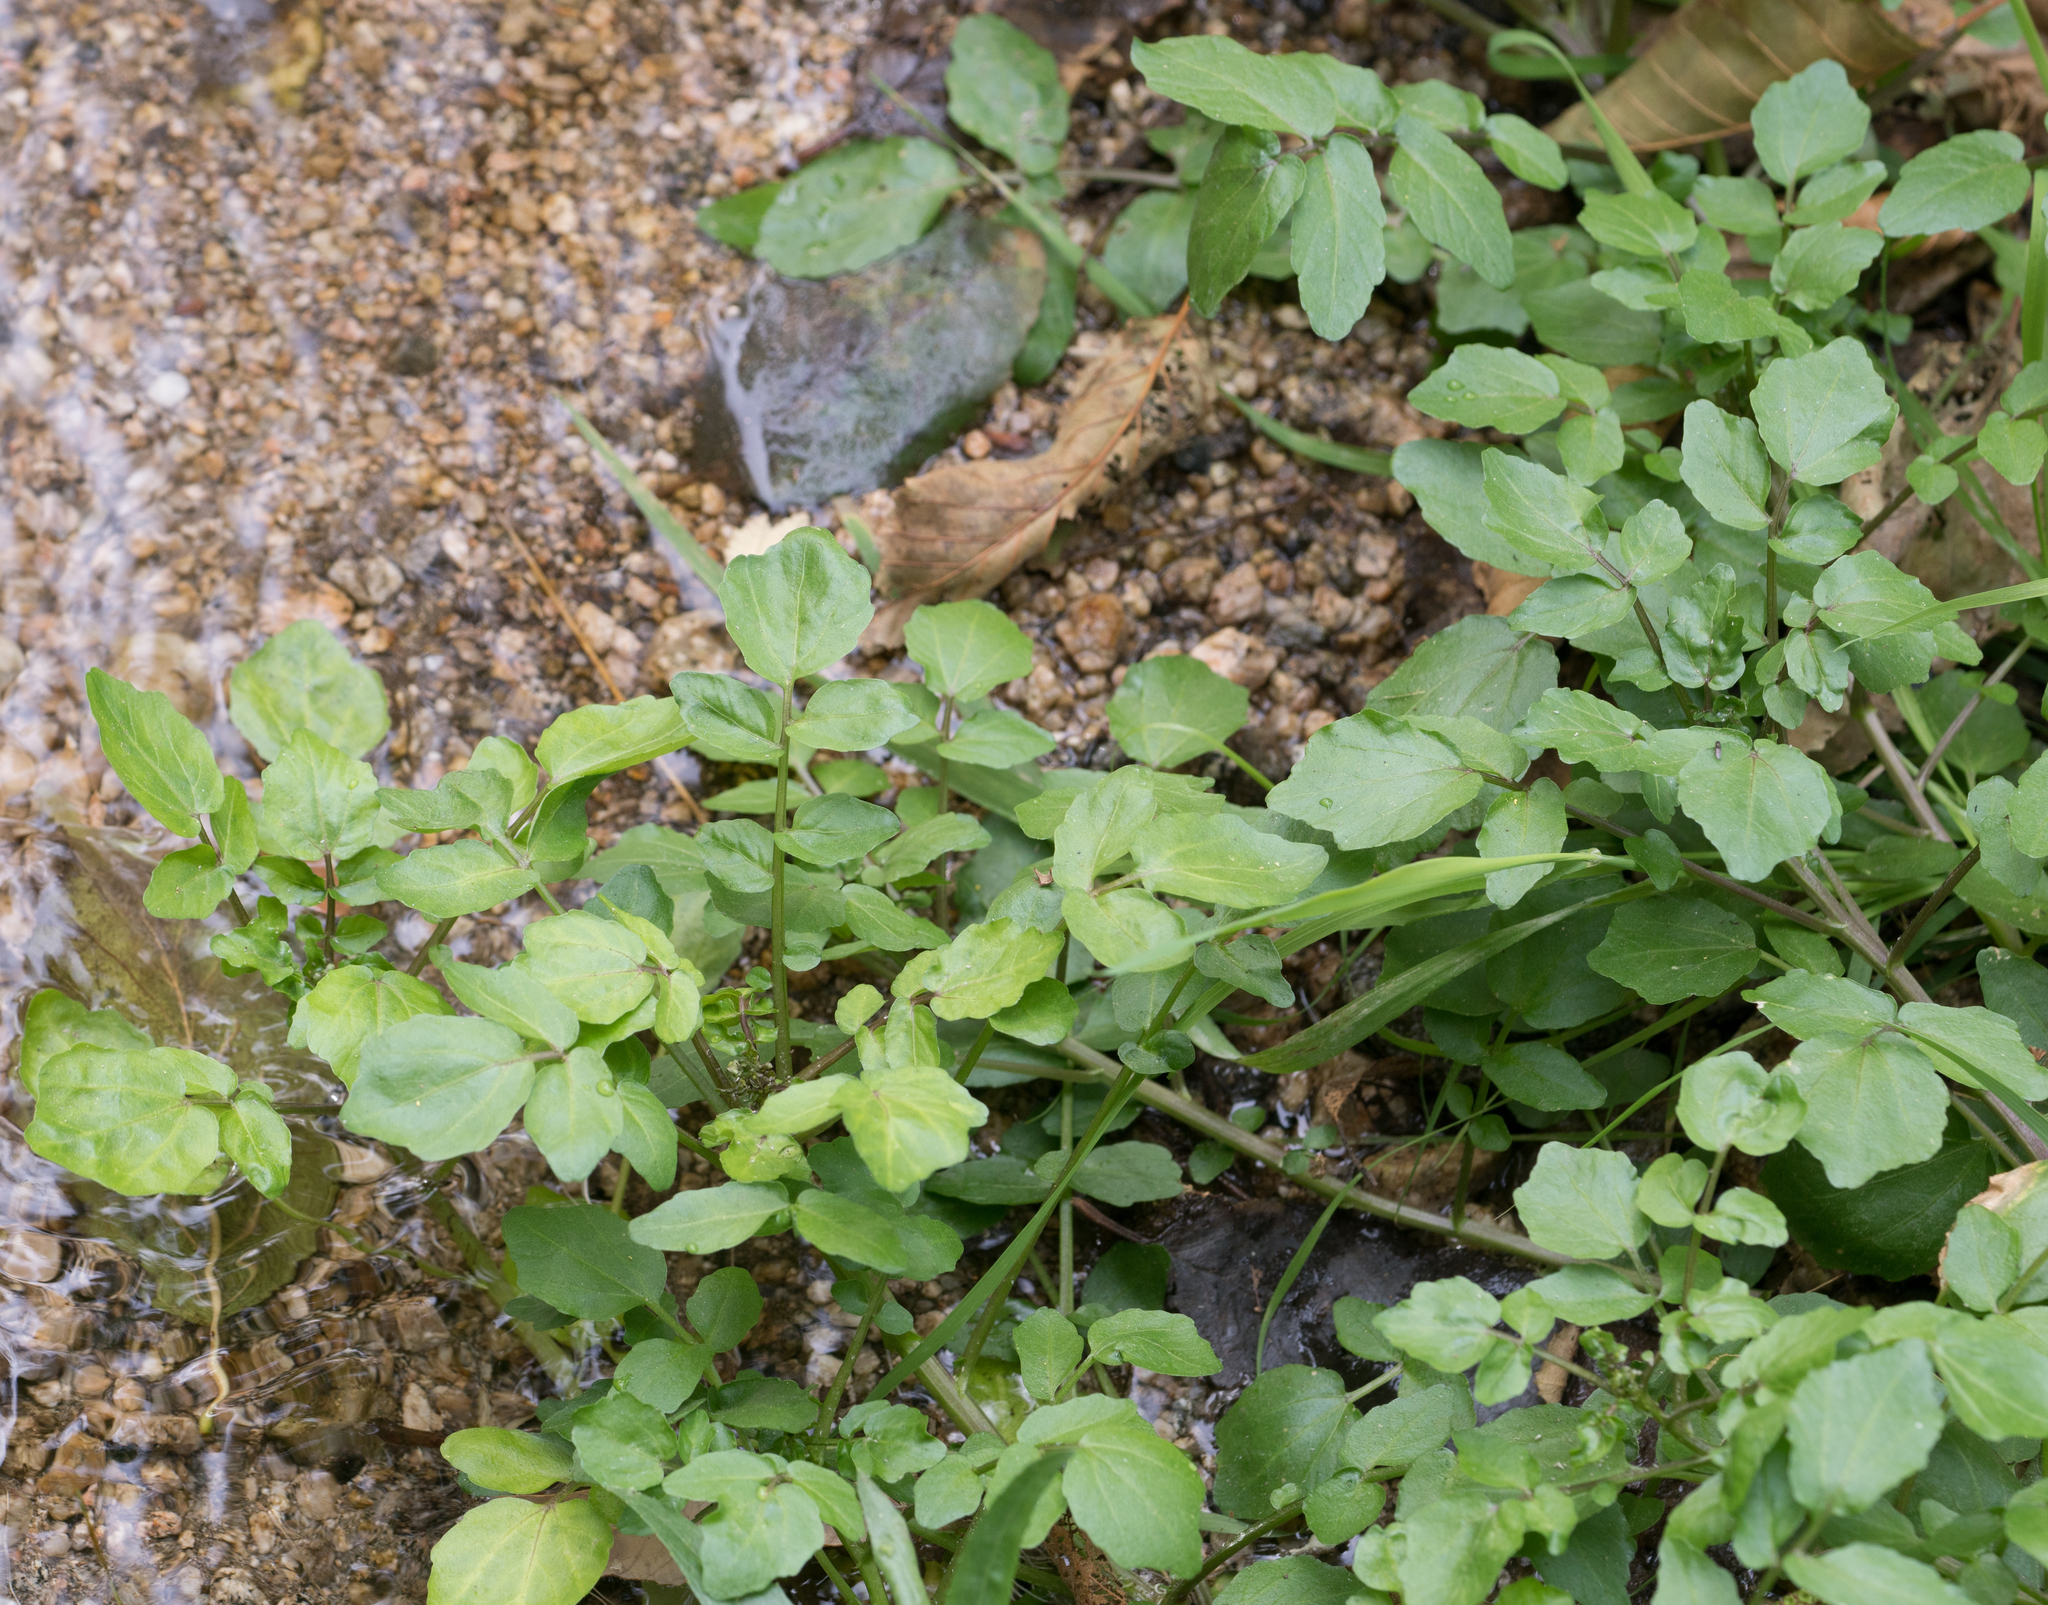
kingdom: Plantae
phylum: Tracheophyta
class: Magnoliopsida
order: Brassicales
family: Brassicaceae
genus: Nasturtium
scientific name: Nasturtium officinale
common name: Watercress
